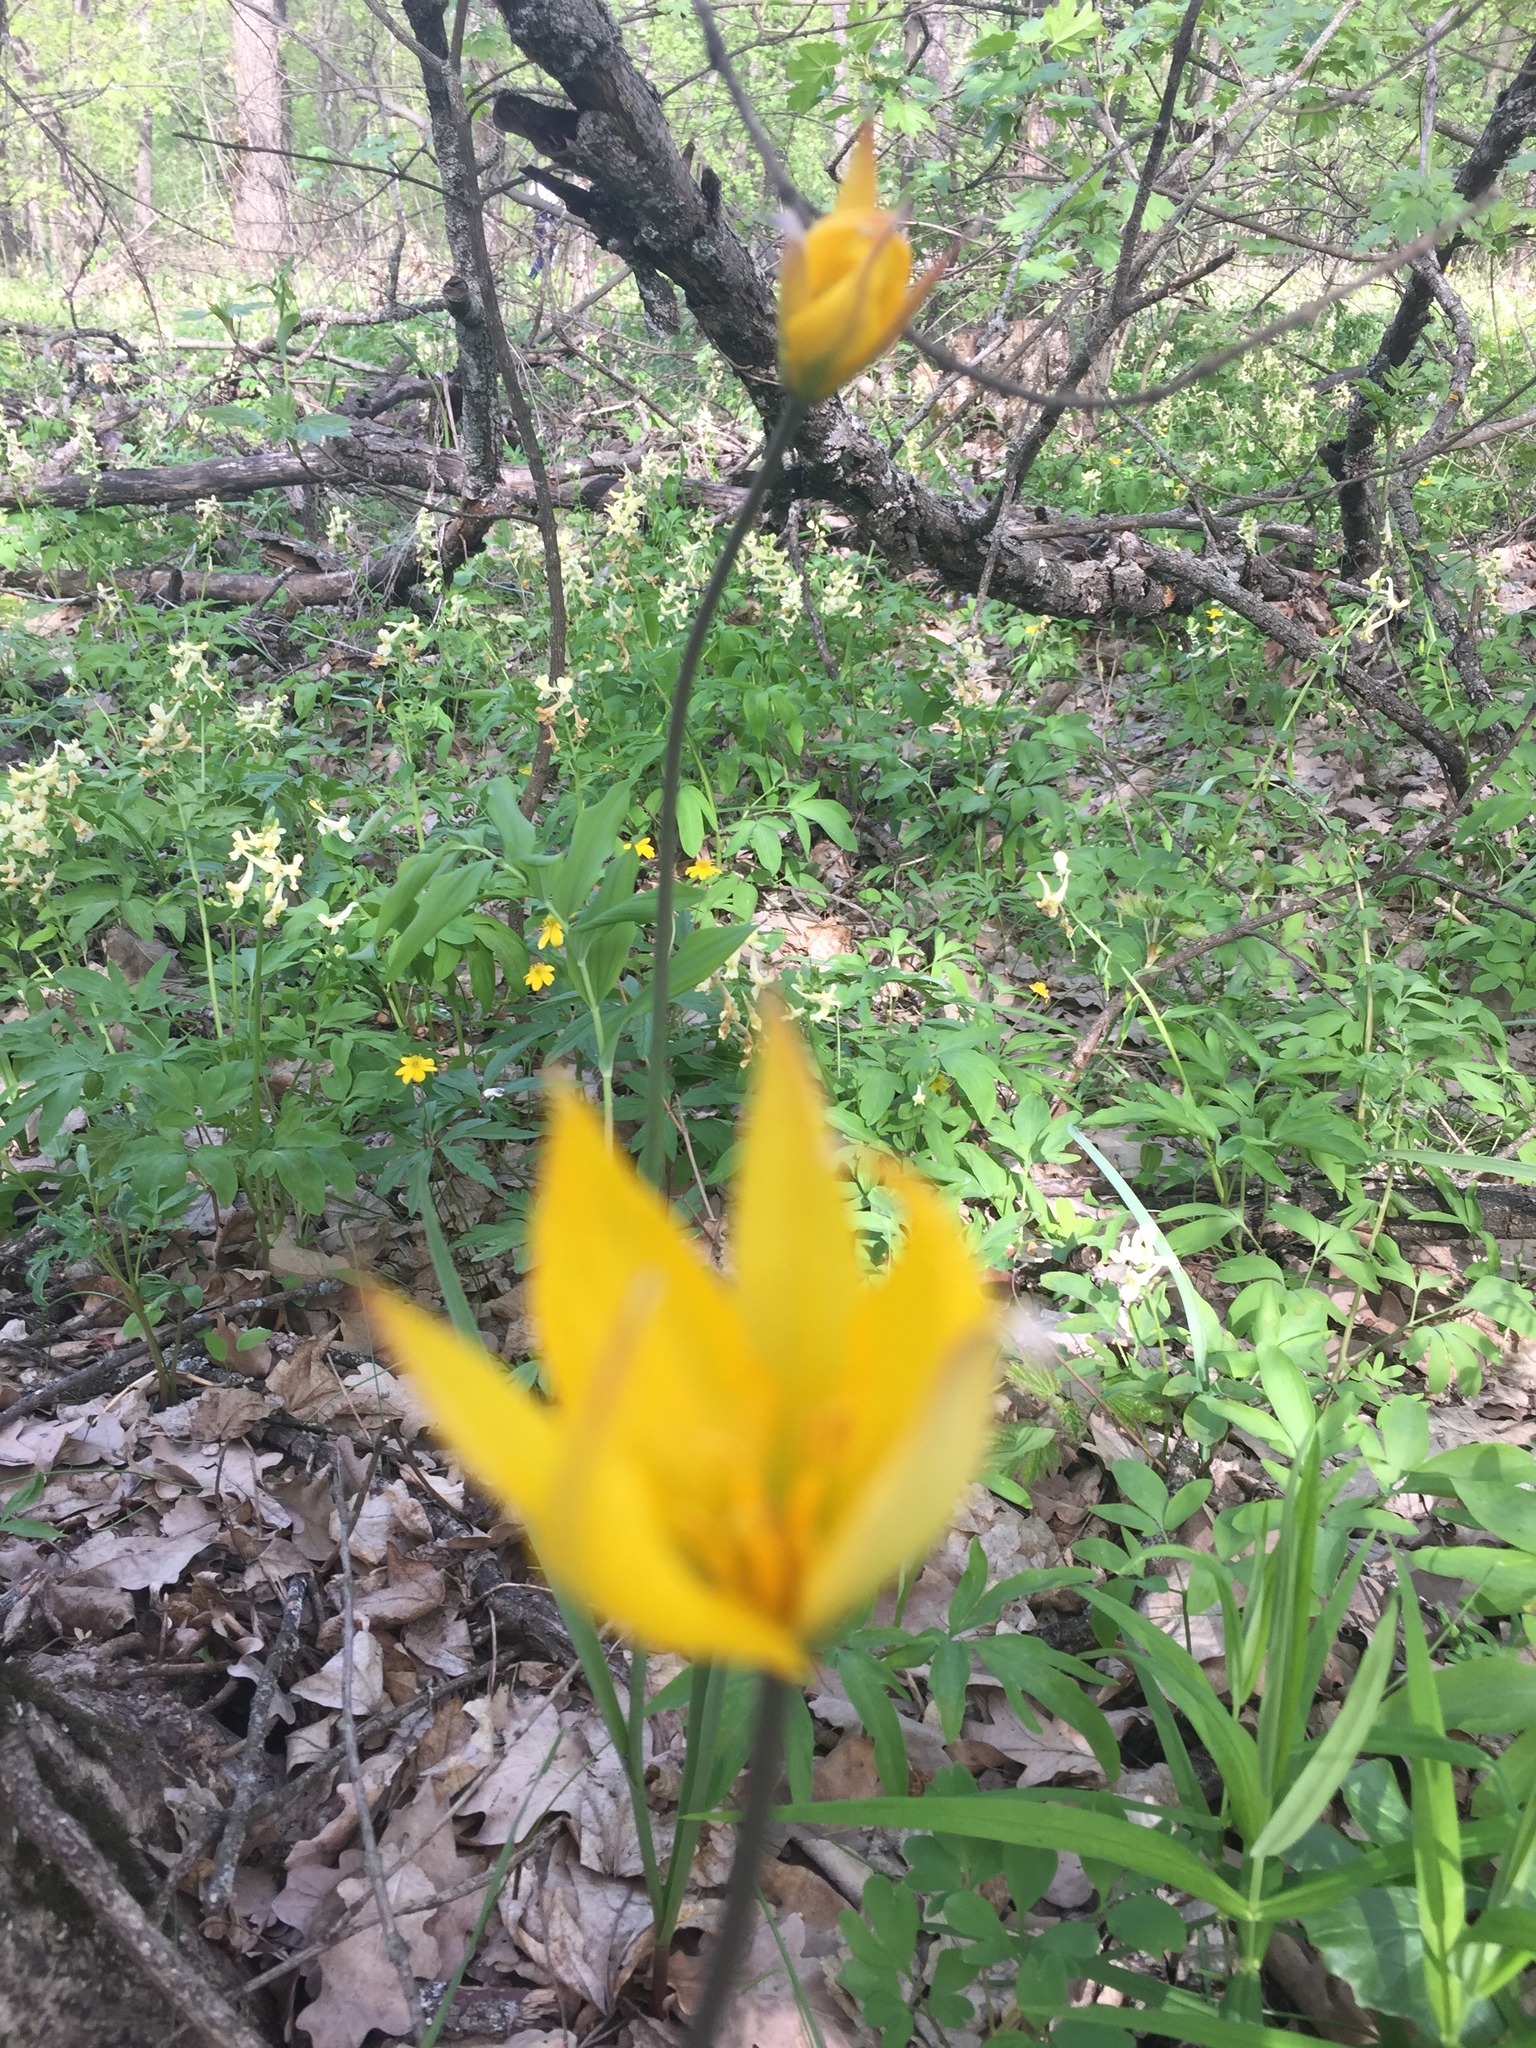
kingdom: Plantae
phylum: Tracheophyta
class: Liliopsida
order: Liliales
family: Liliaceae
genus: Tulipa
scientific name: Tulipa sylvestris
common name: Wild tulip
